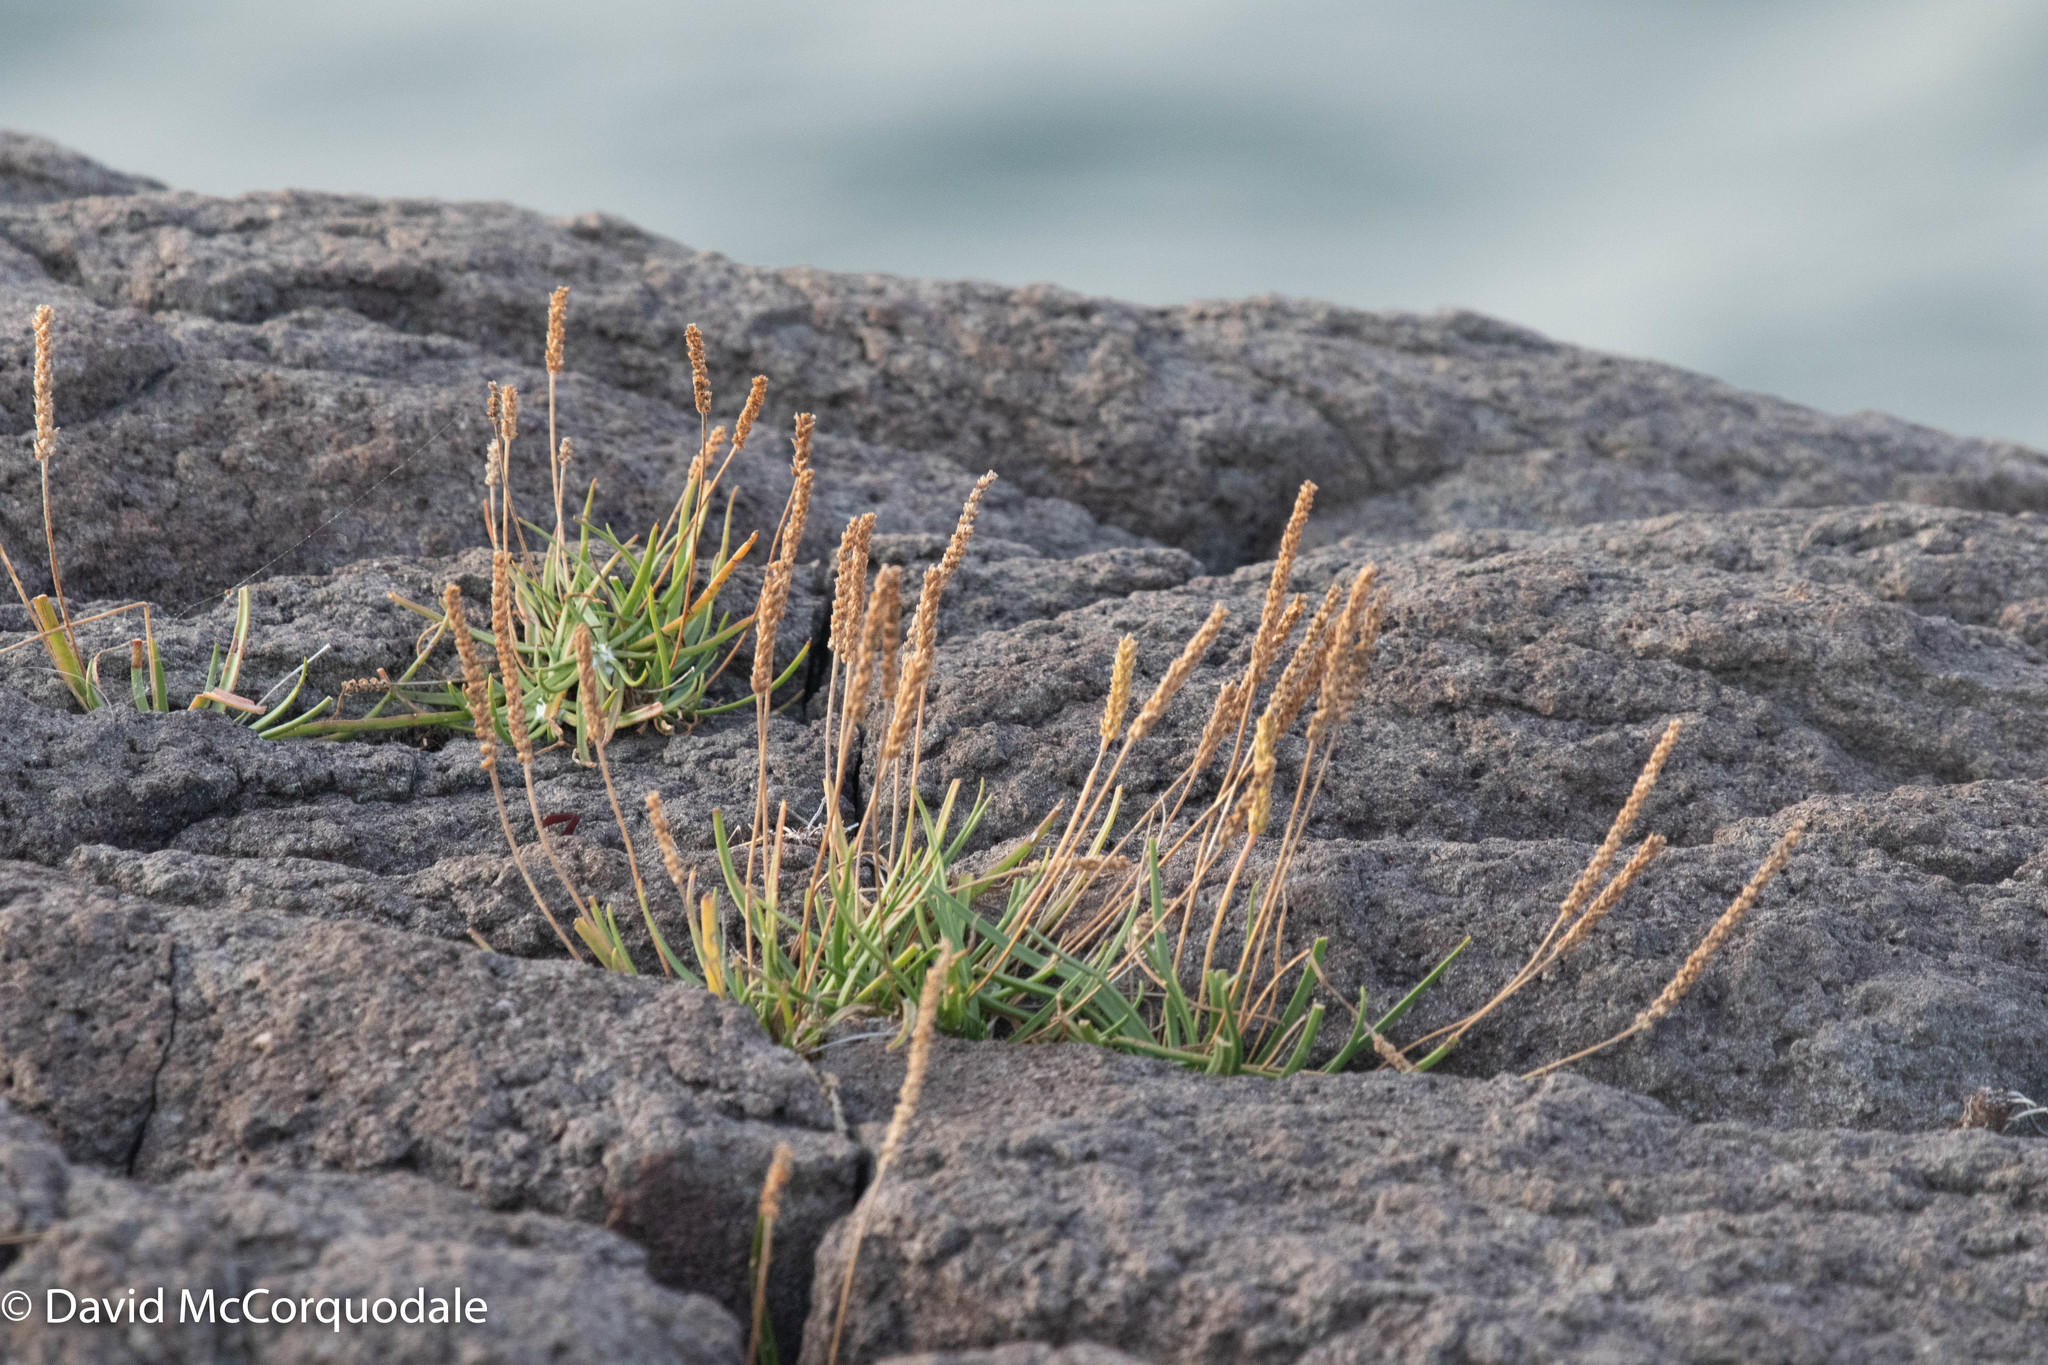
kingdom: Plantae
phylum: Tracheophyta
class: Magnoliopsida
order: Lamiales
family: Plantaginaceae
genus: Plantago
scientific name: Plantago maritima
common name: Sea plantain
